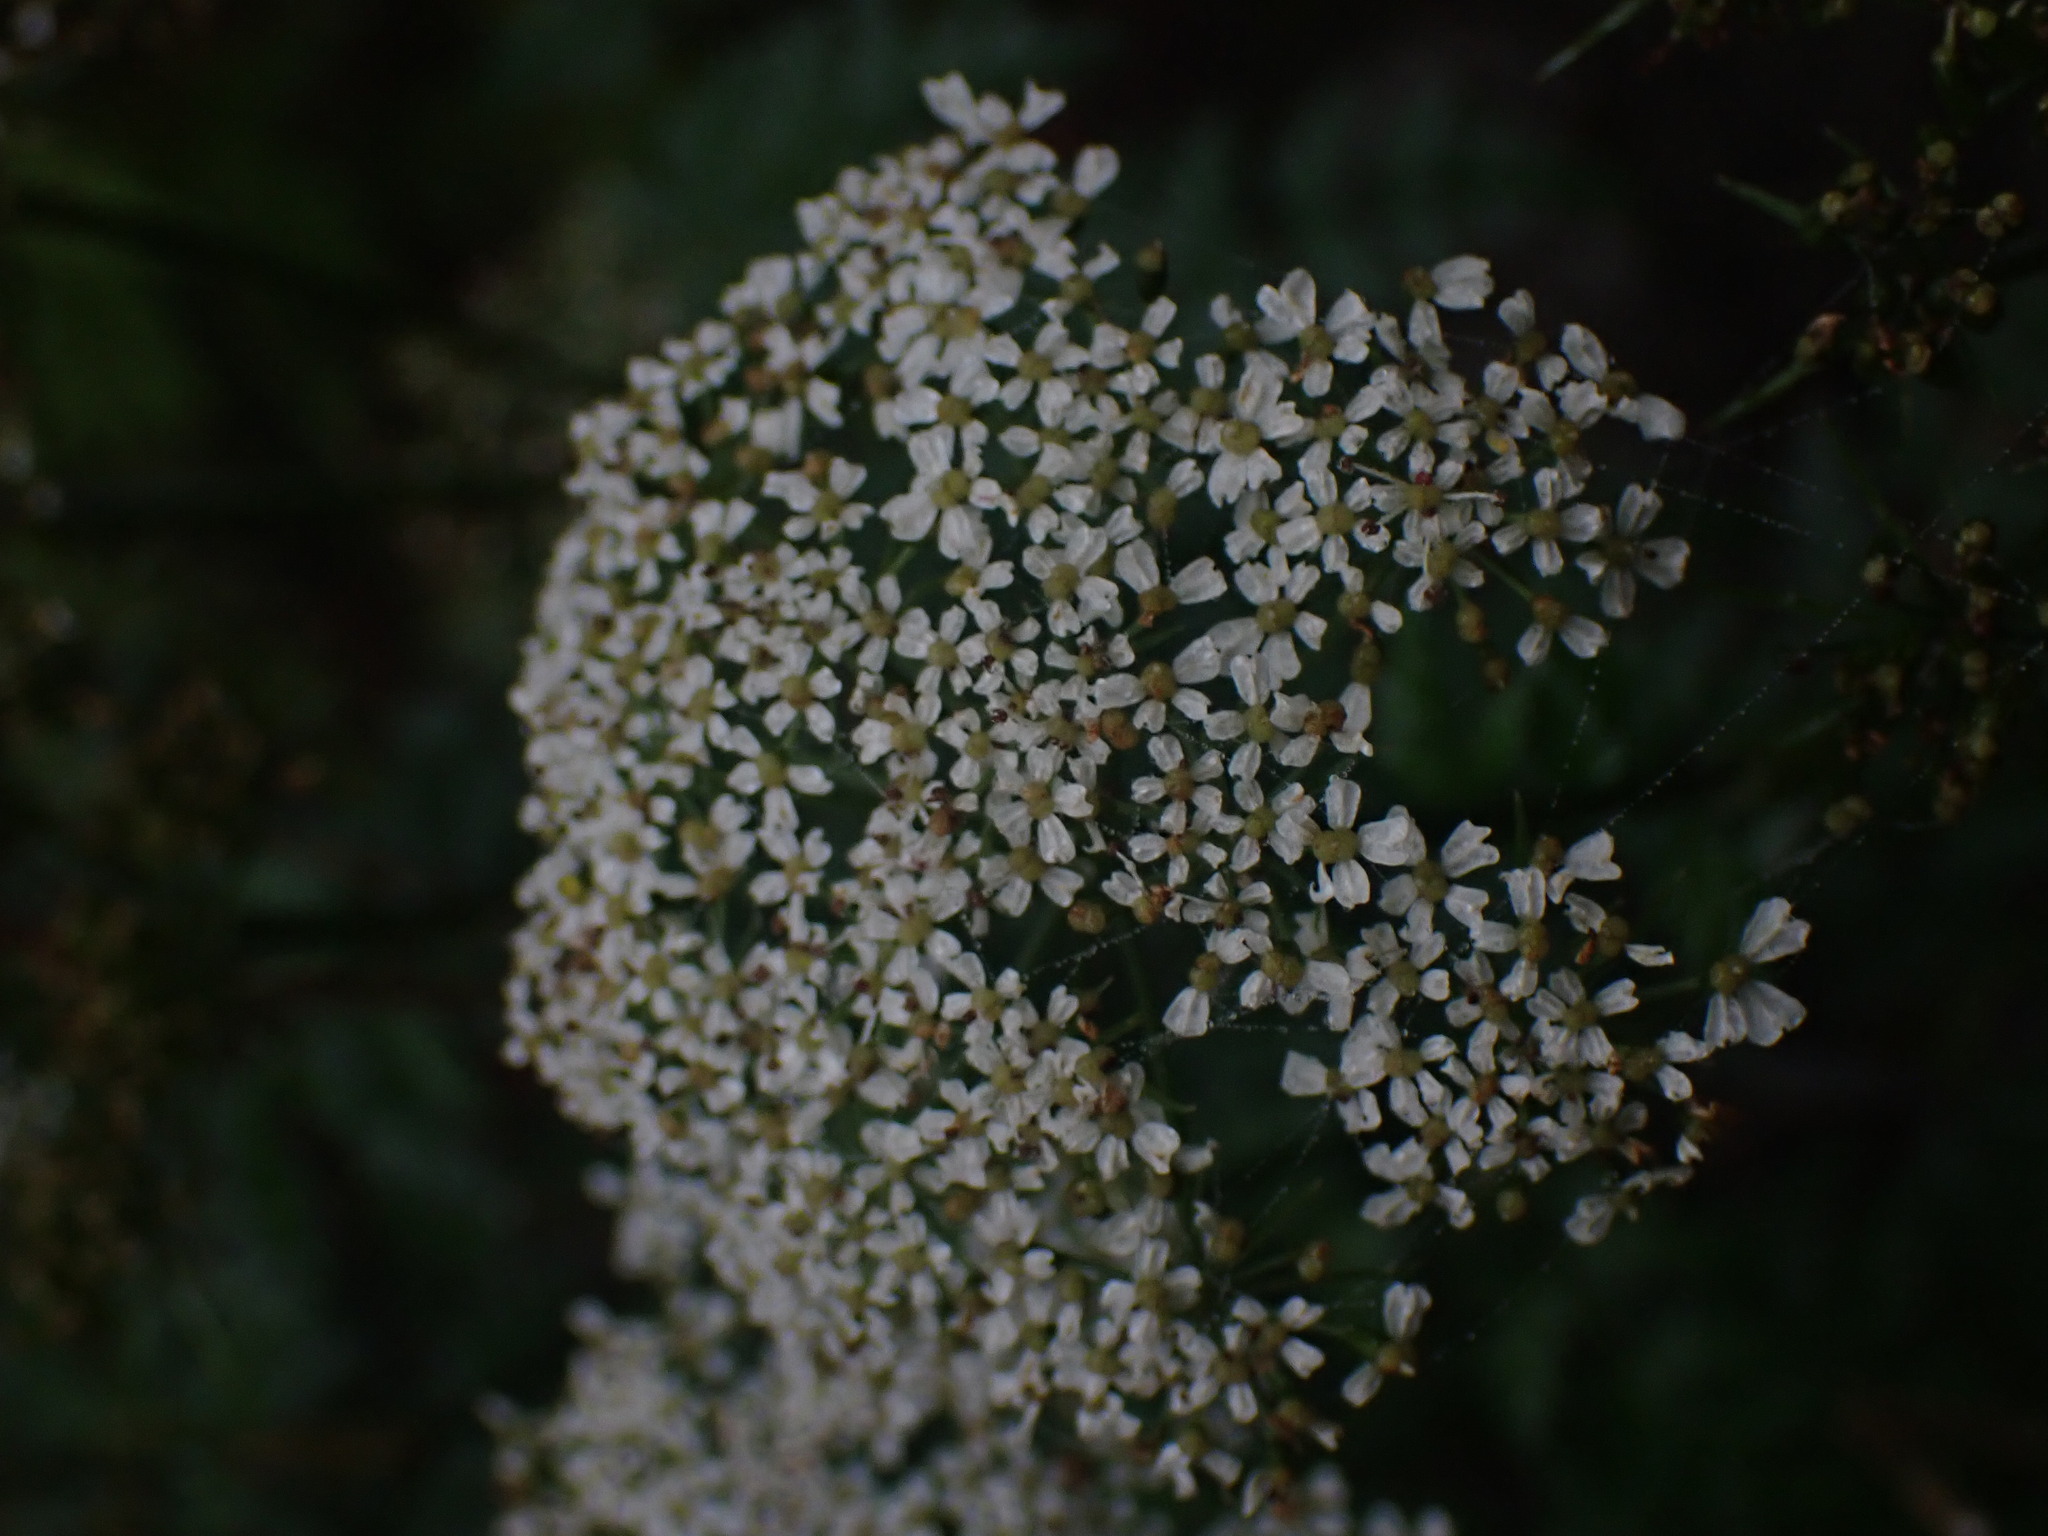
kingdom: Plantae
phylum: Tracheophyta
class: Magnoliopsida
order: Apiales
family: Apiaceae
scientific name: Apiaceae
